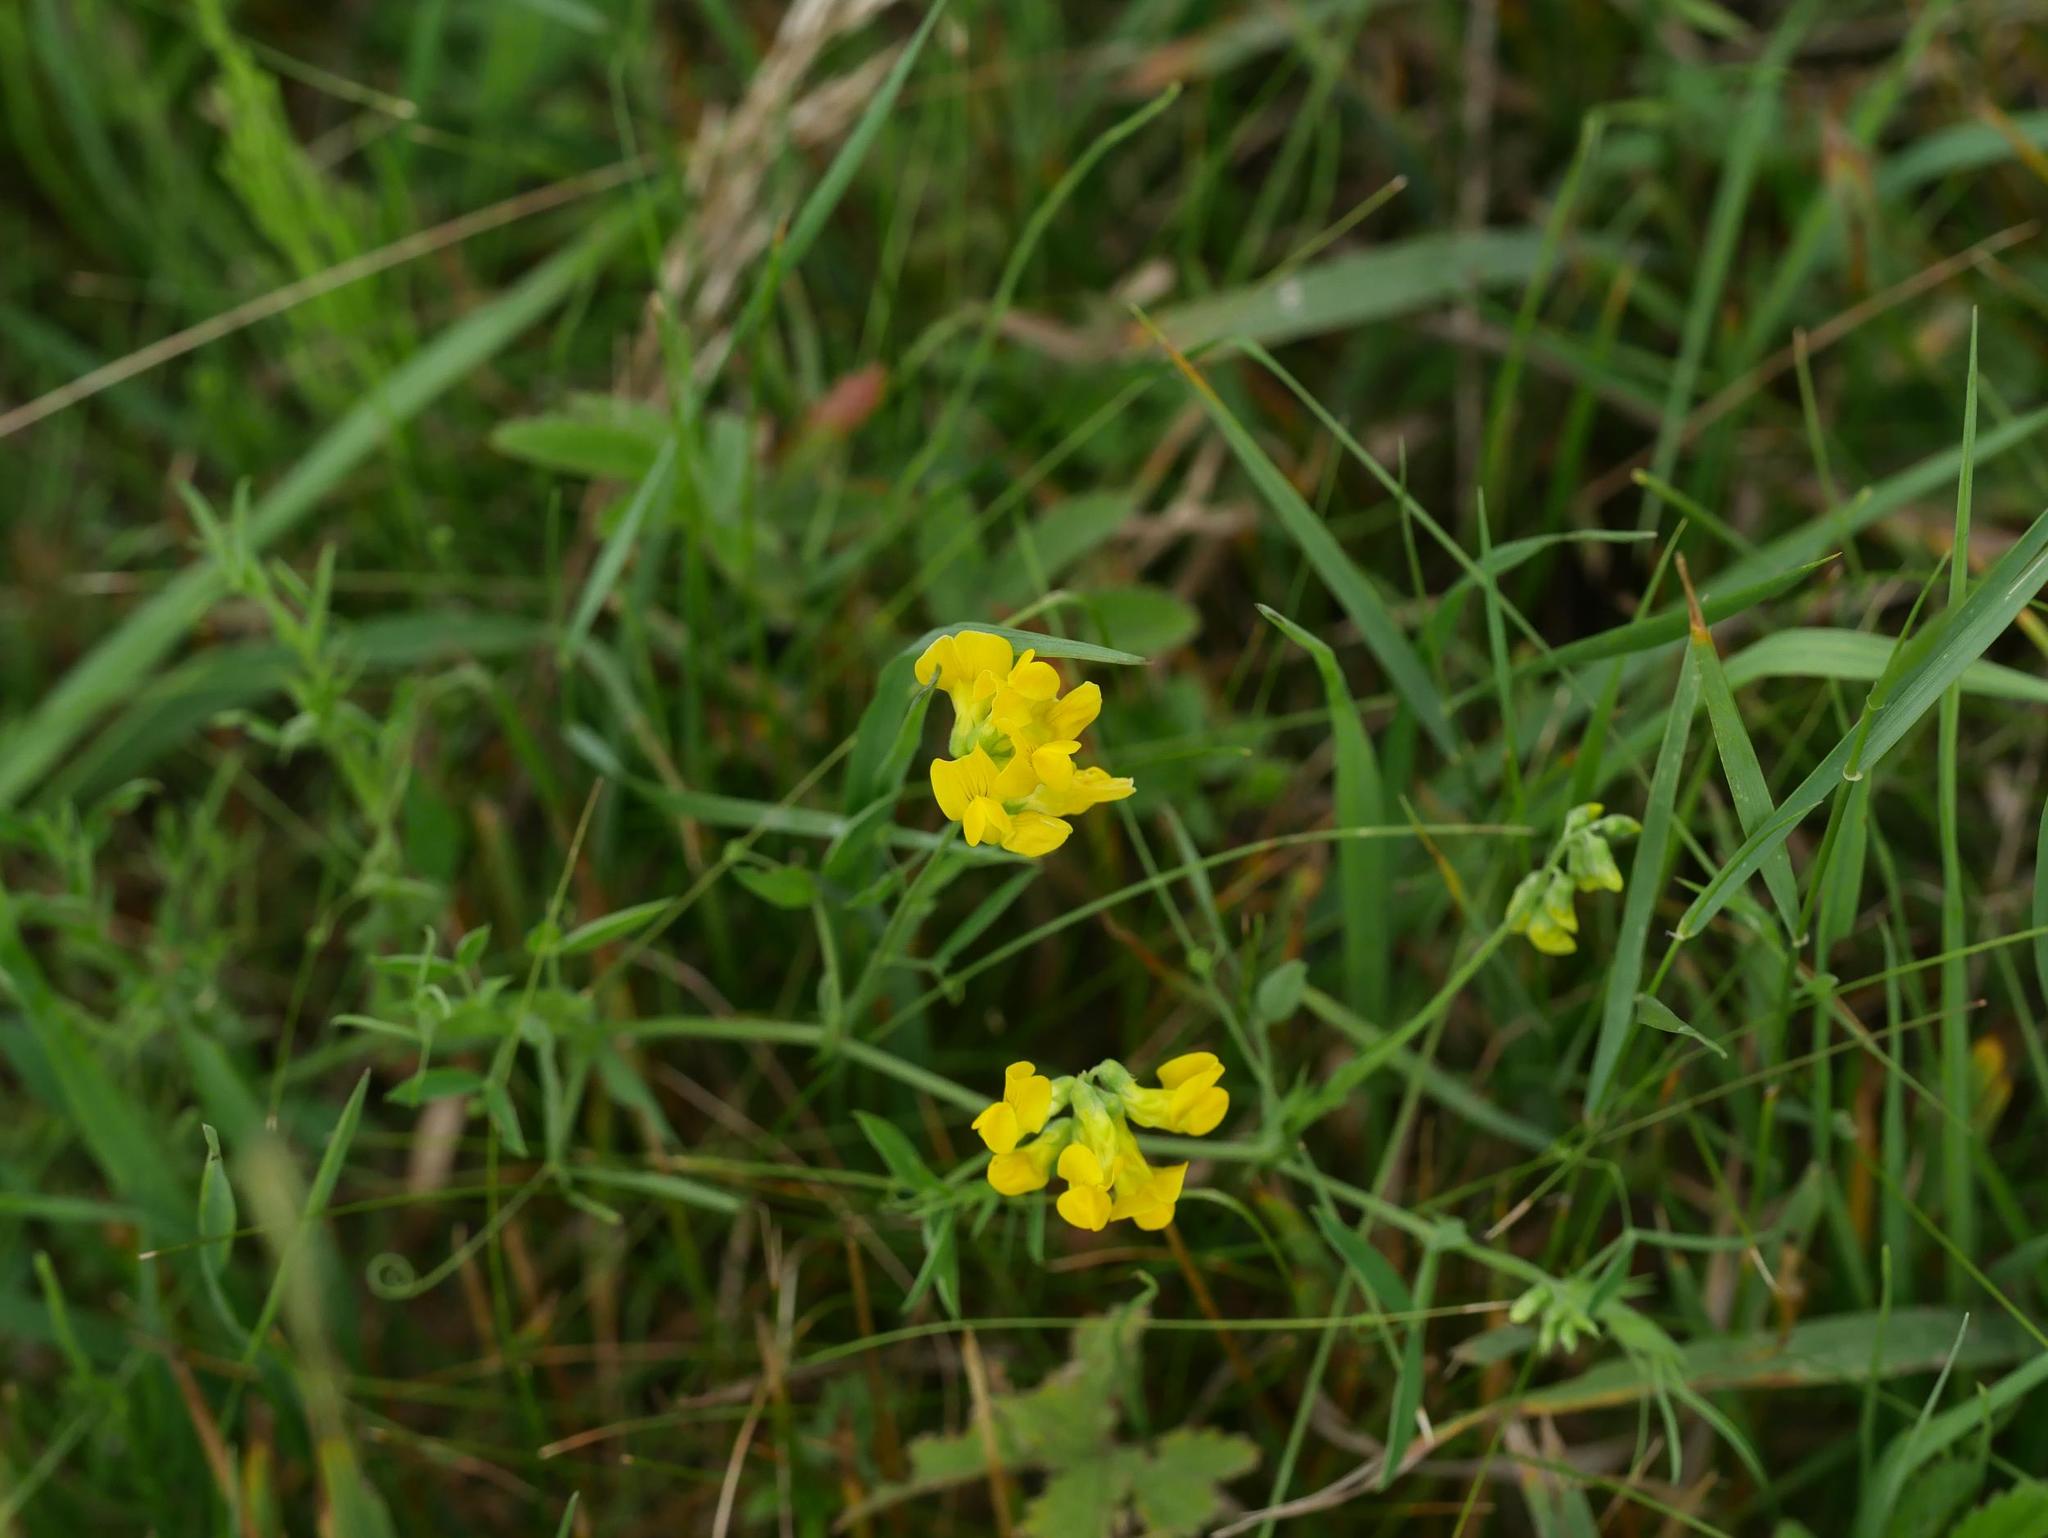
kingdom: Plantae
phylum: Tracheophyta
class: Magnoliopsida
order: Fabales
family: Fabaceae
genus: Lathyrus
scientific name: Lathyrus pratensis
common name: Meadow vetchling
